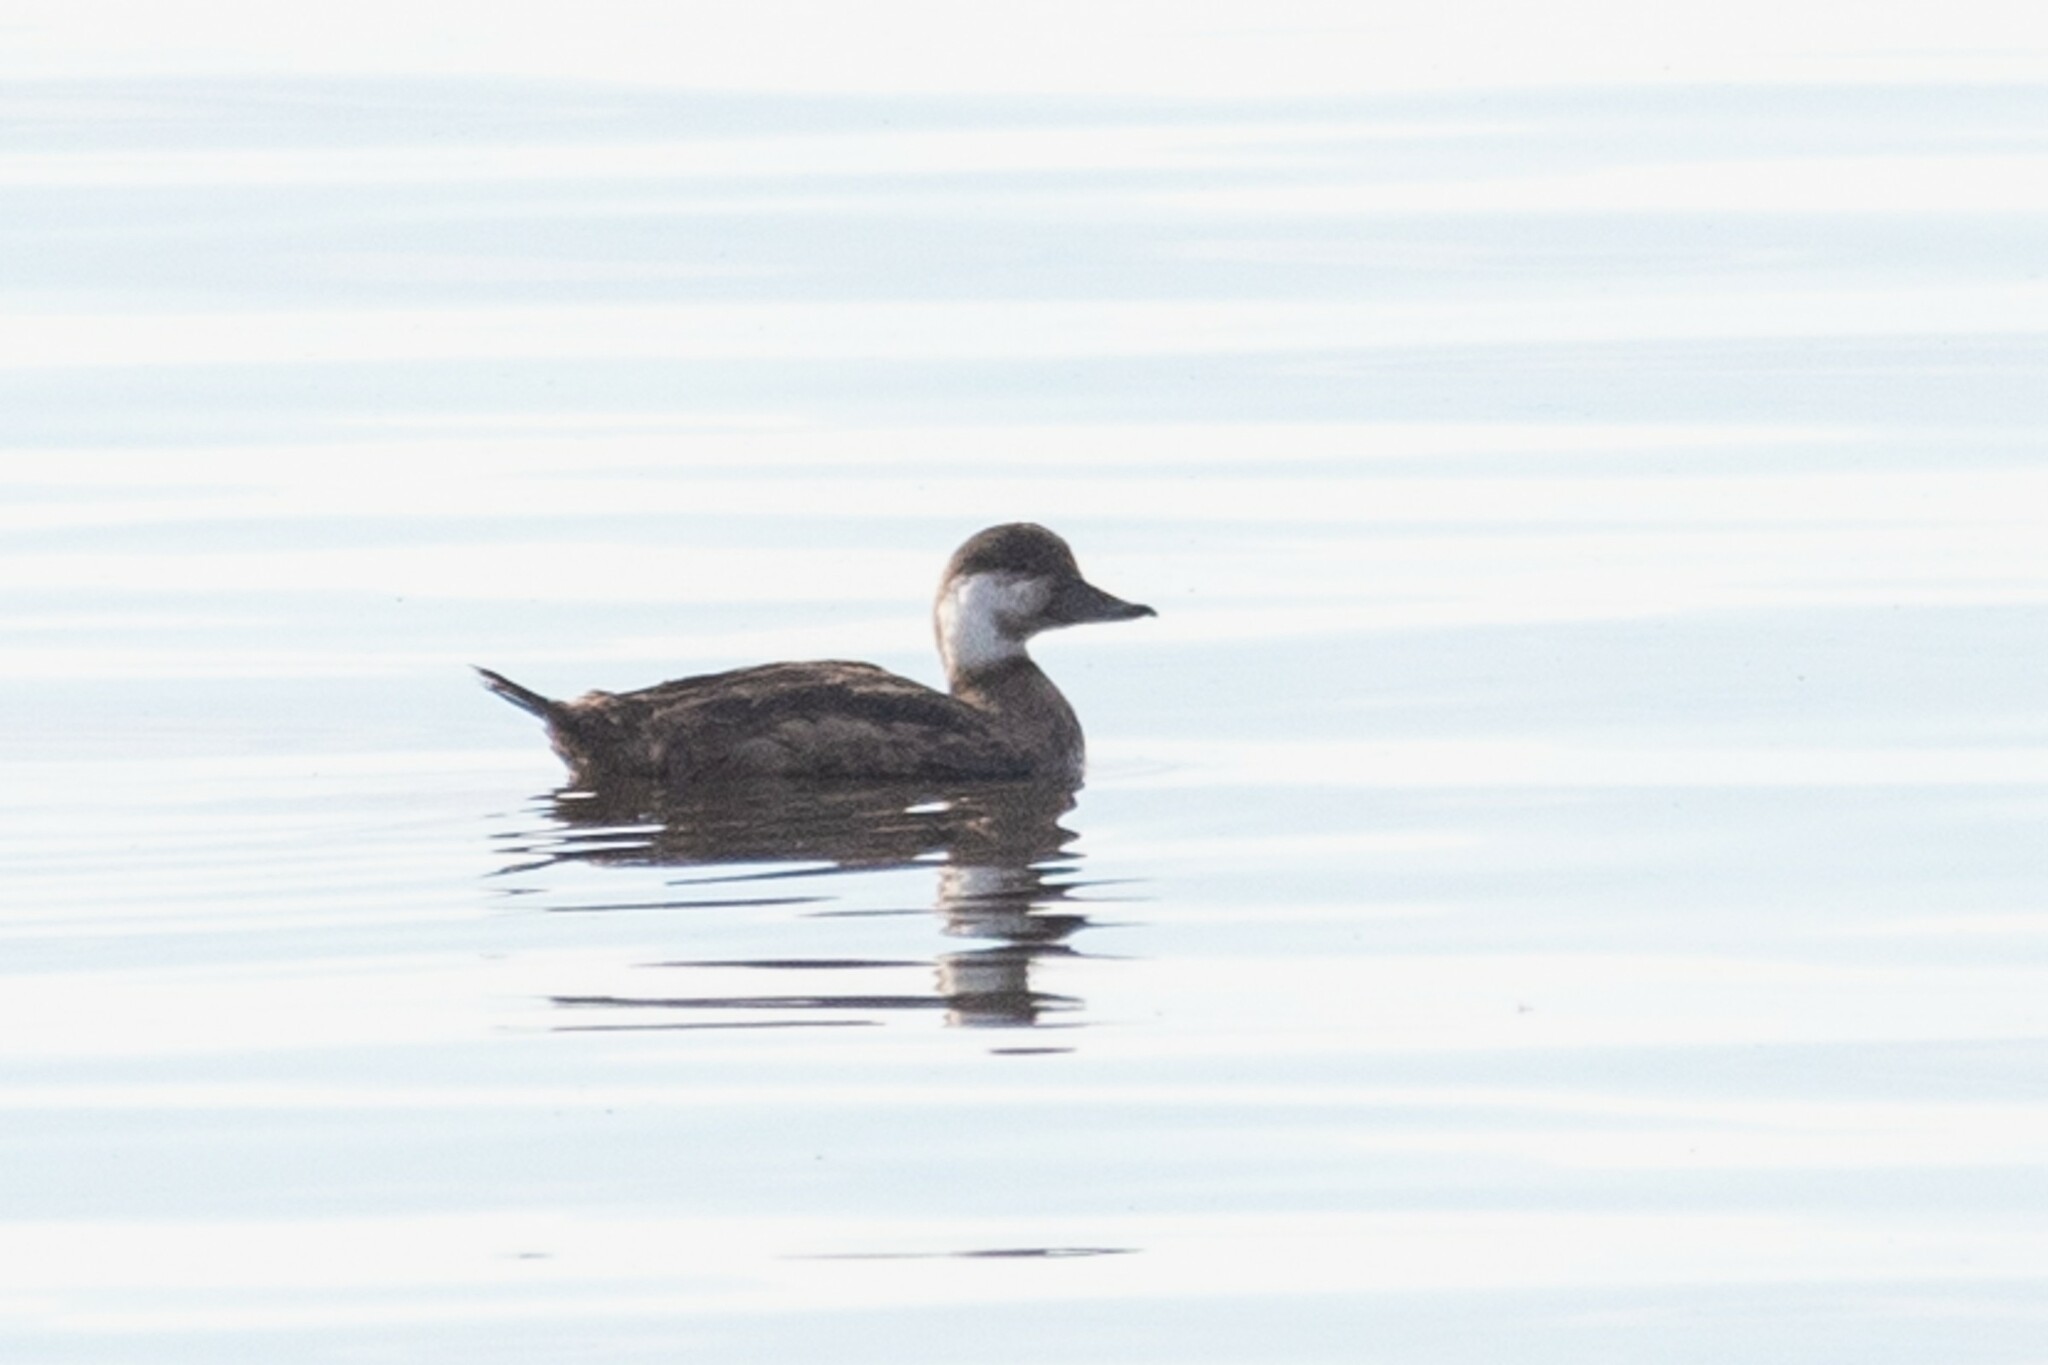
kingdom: Animalia
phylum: Chordata
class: Aves
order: Anseriformes
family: Anatidae
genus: Melanitta
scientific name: Melanitta americana
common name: Black scoter
